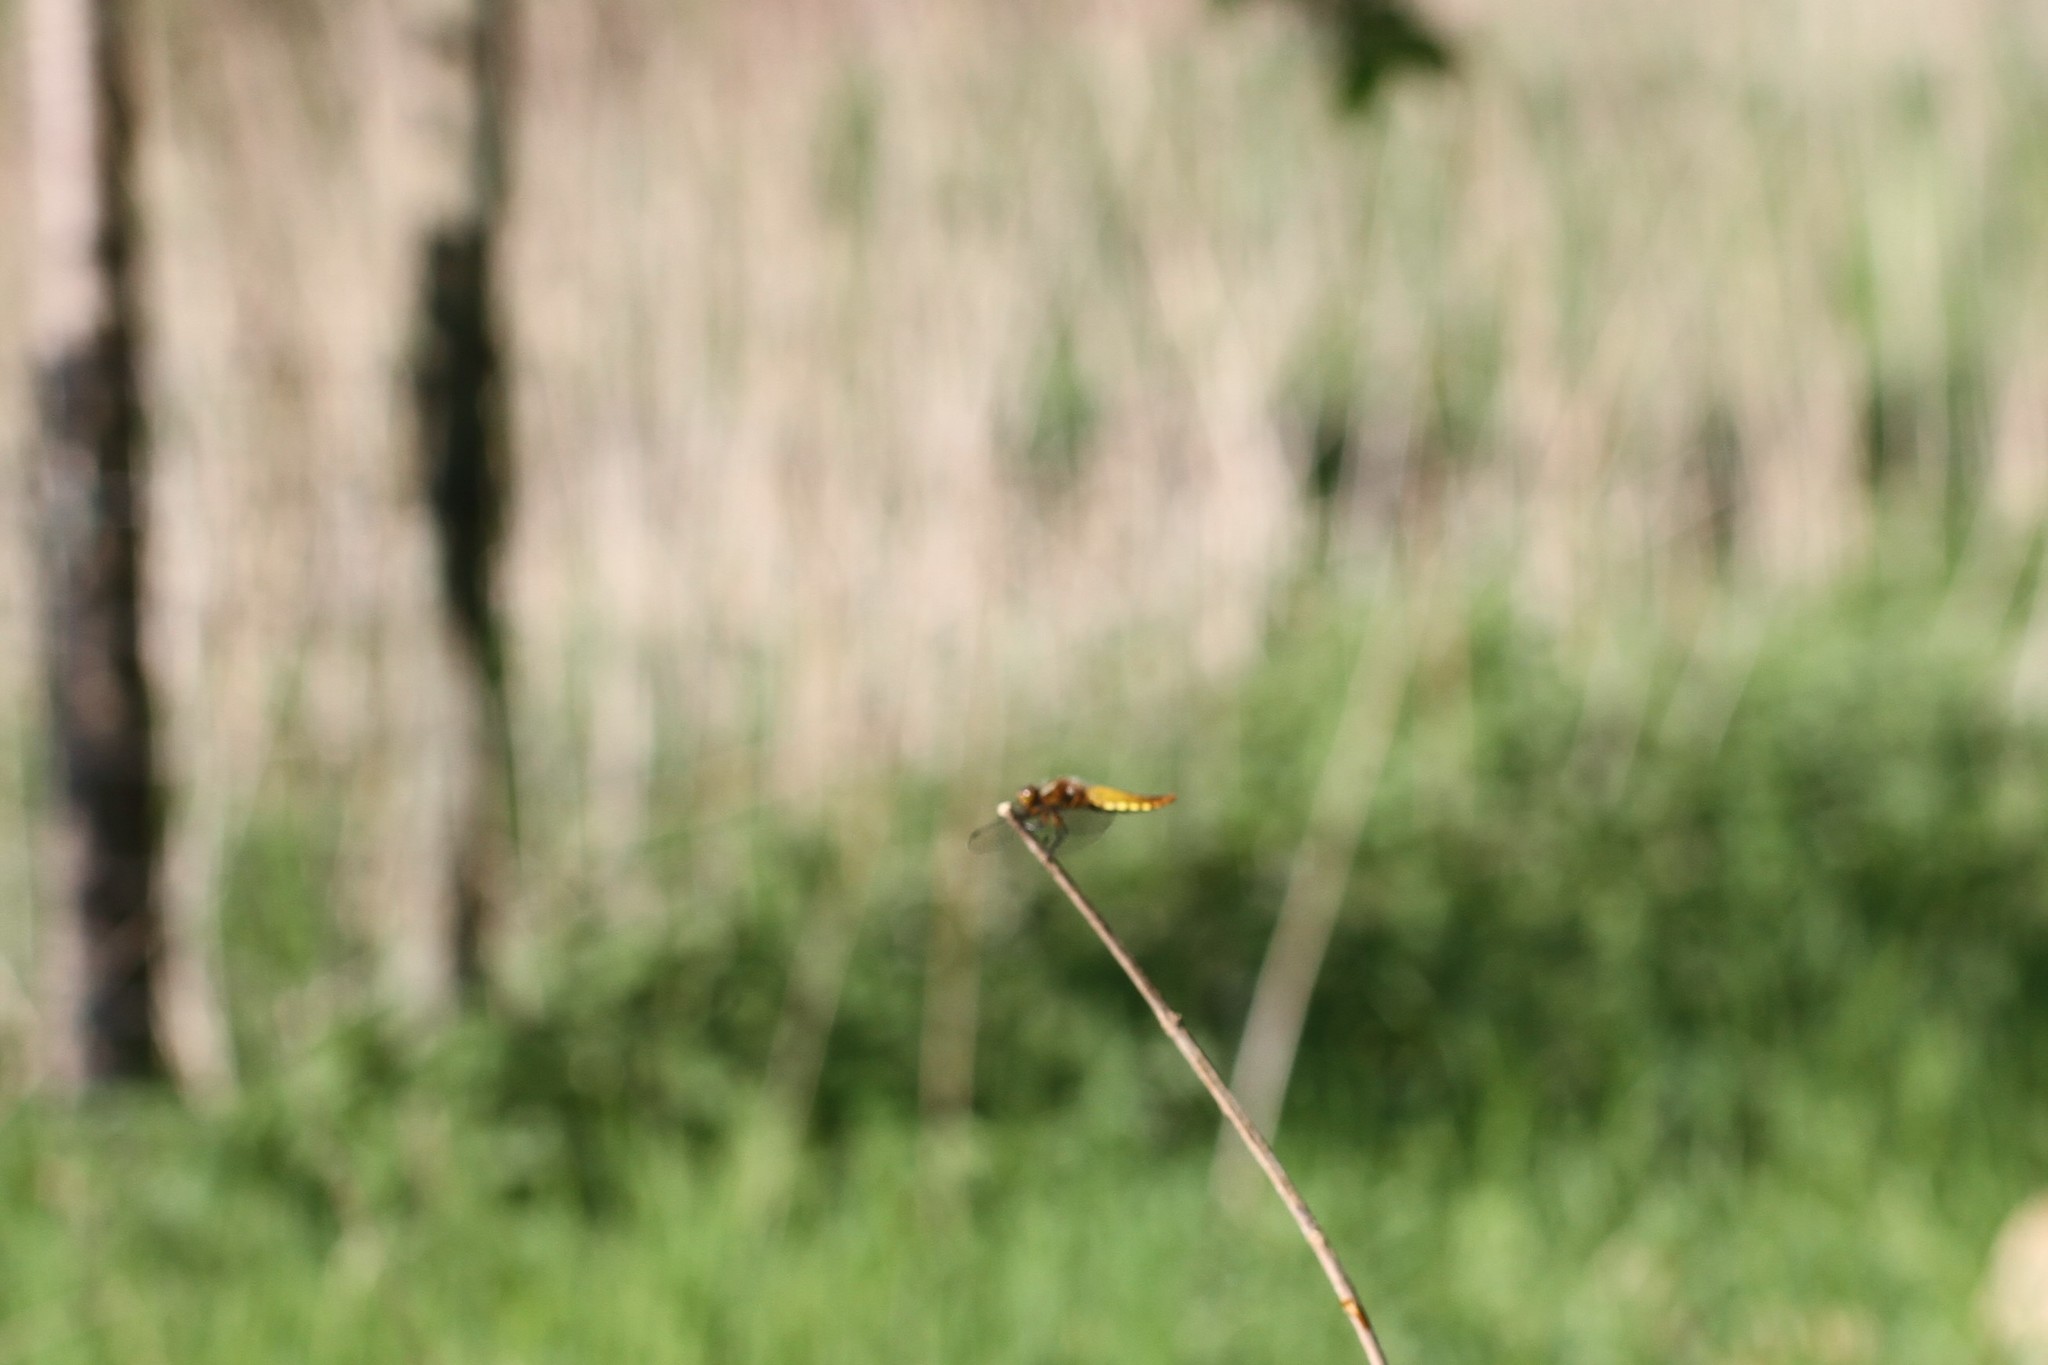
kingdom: Animalia
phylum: Arthropoda
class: Insecta
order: Odonata
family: Libellulidae
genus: Libellula
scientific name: Libellula depressa
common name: Broad-bodied chaser
